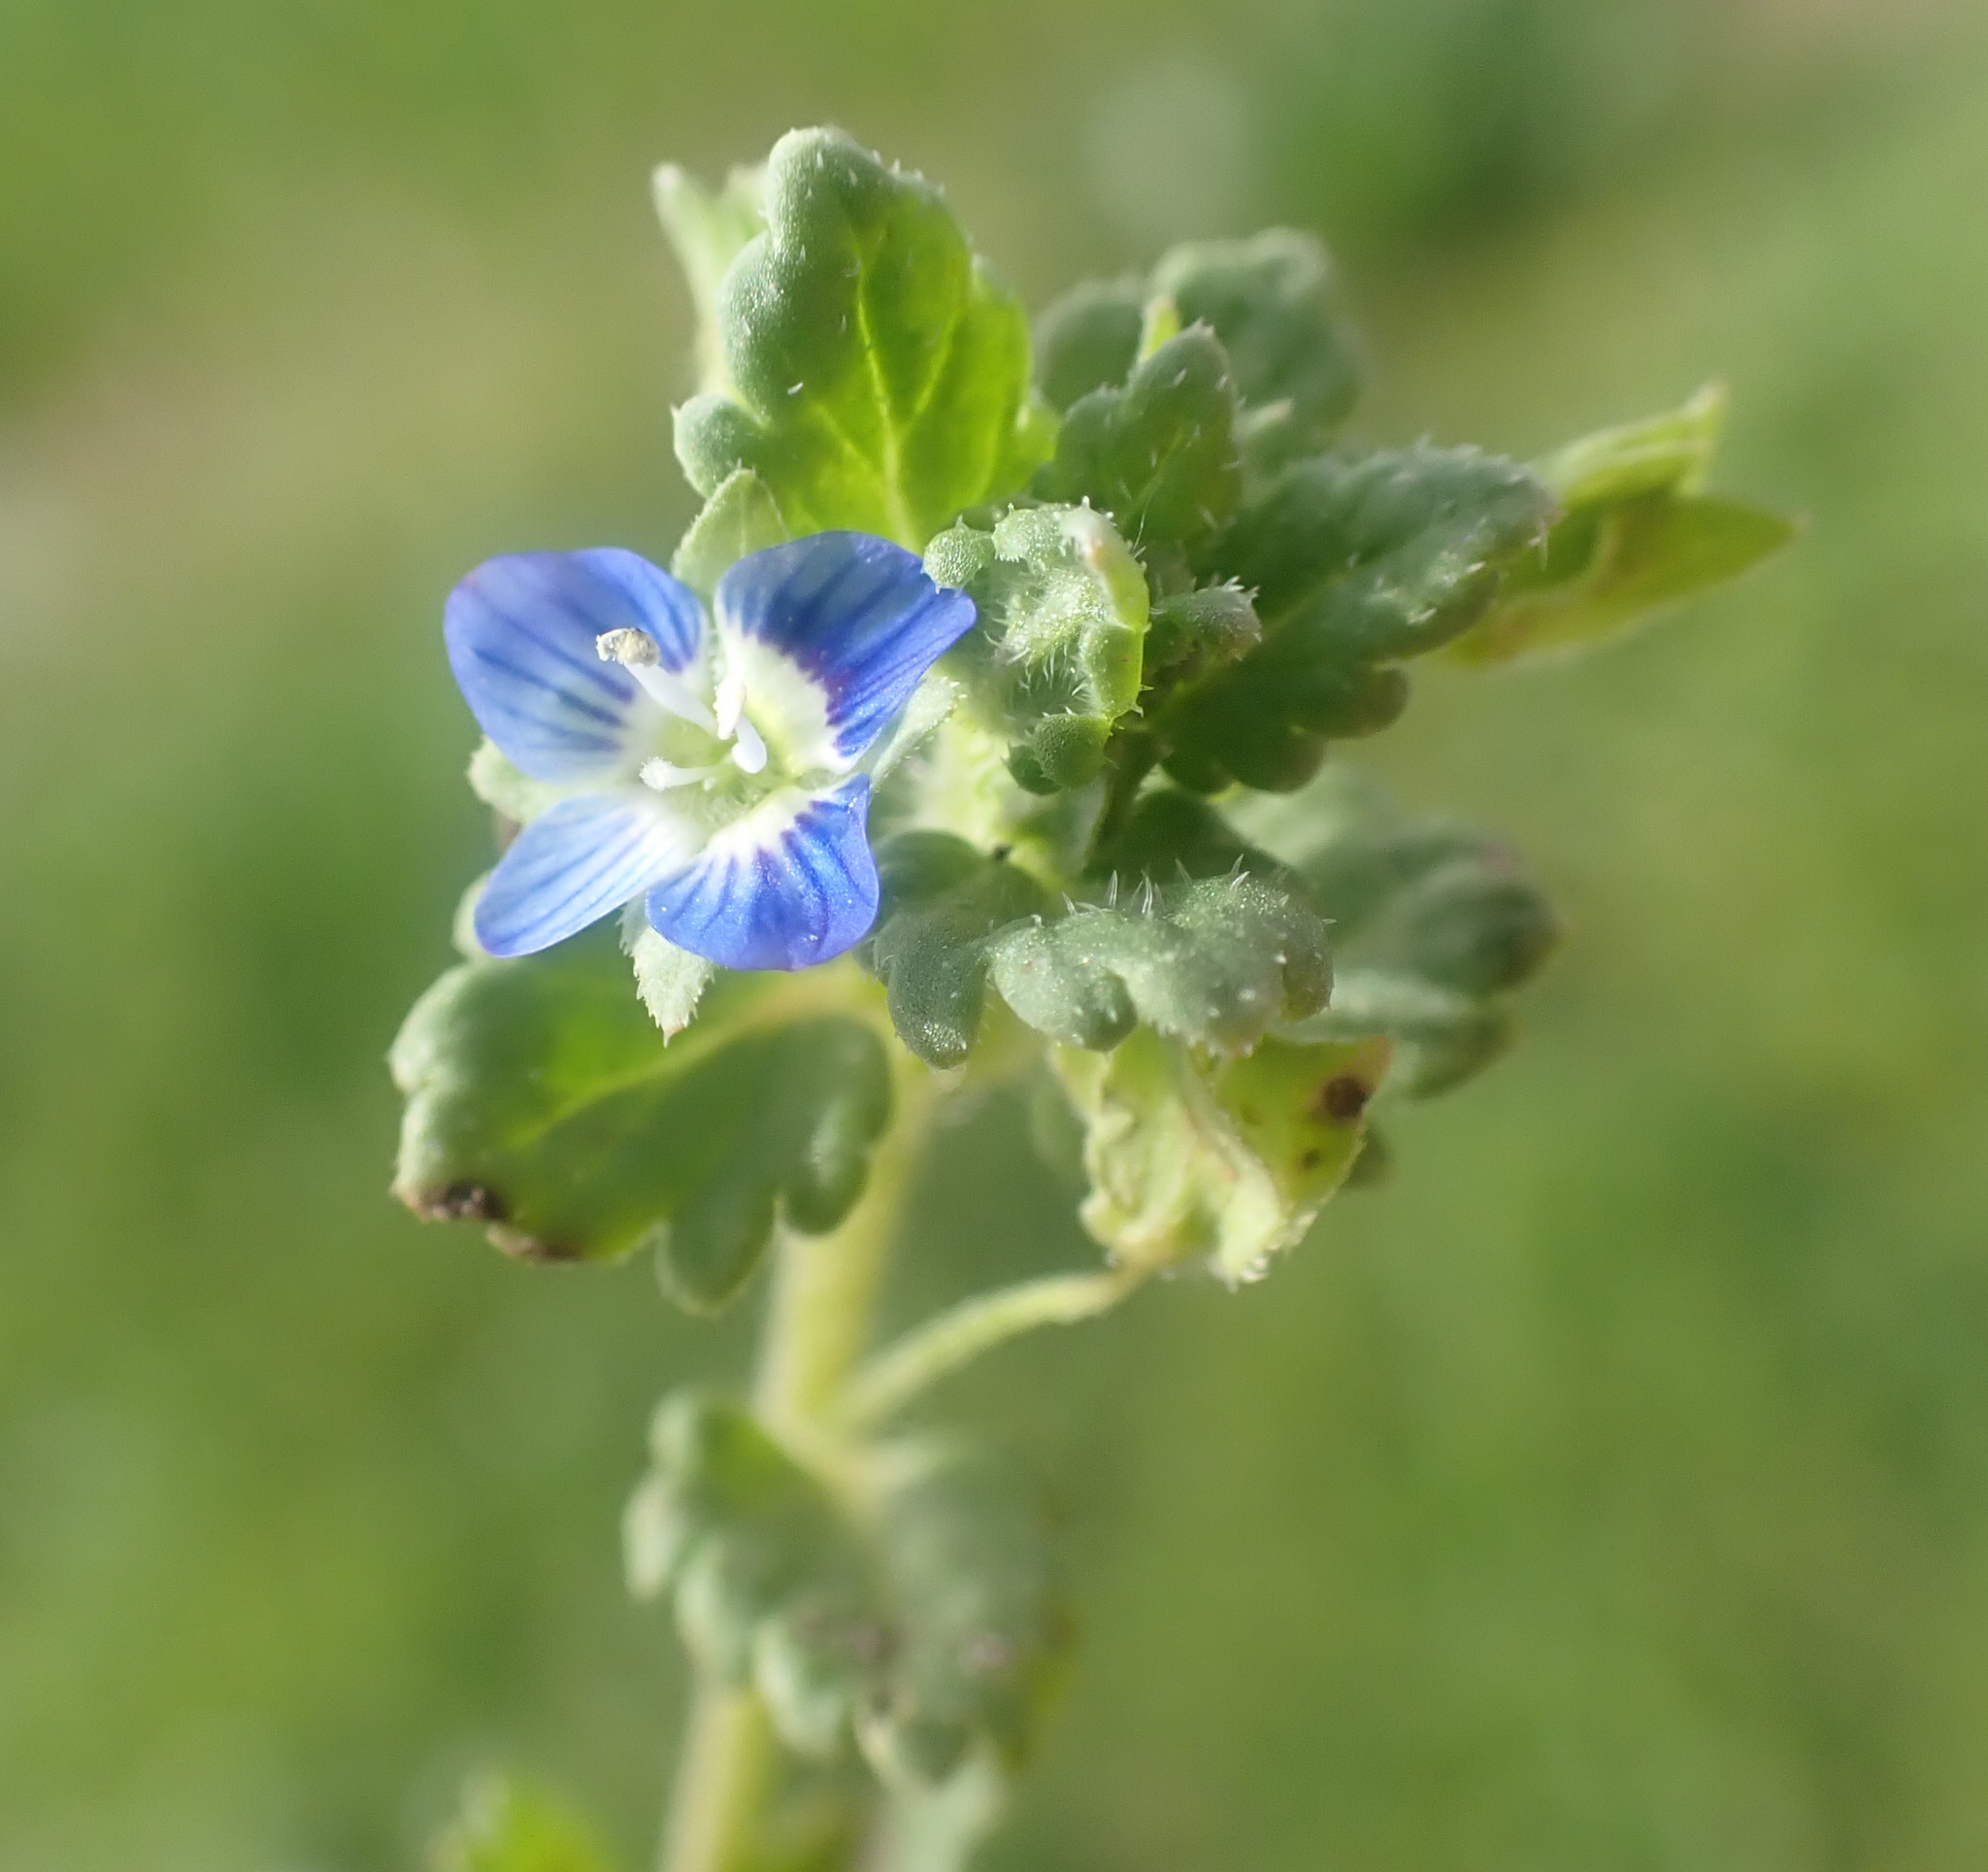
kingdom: Plantae
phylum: Tracheophyta
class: Magnoliopsida
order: Lamiales
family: Plantaginaceae
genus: Veronica
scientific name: Veronica polita
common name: Grey field-speedwell
